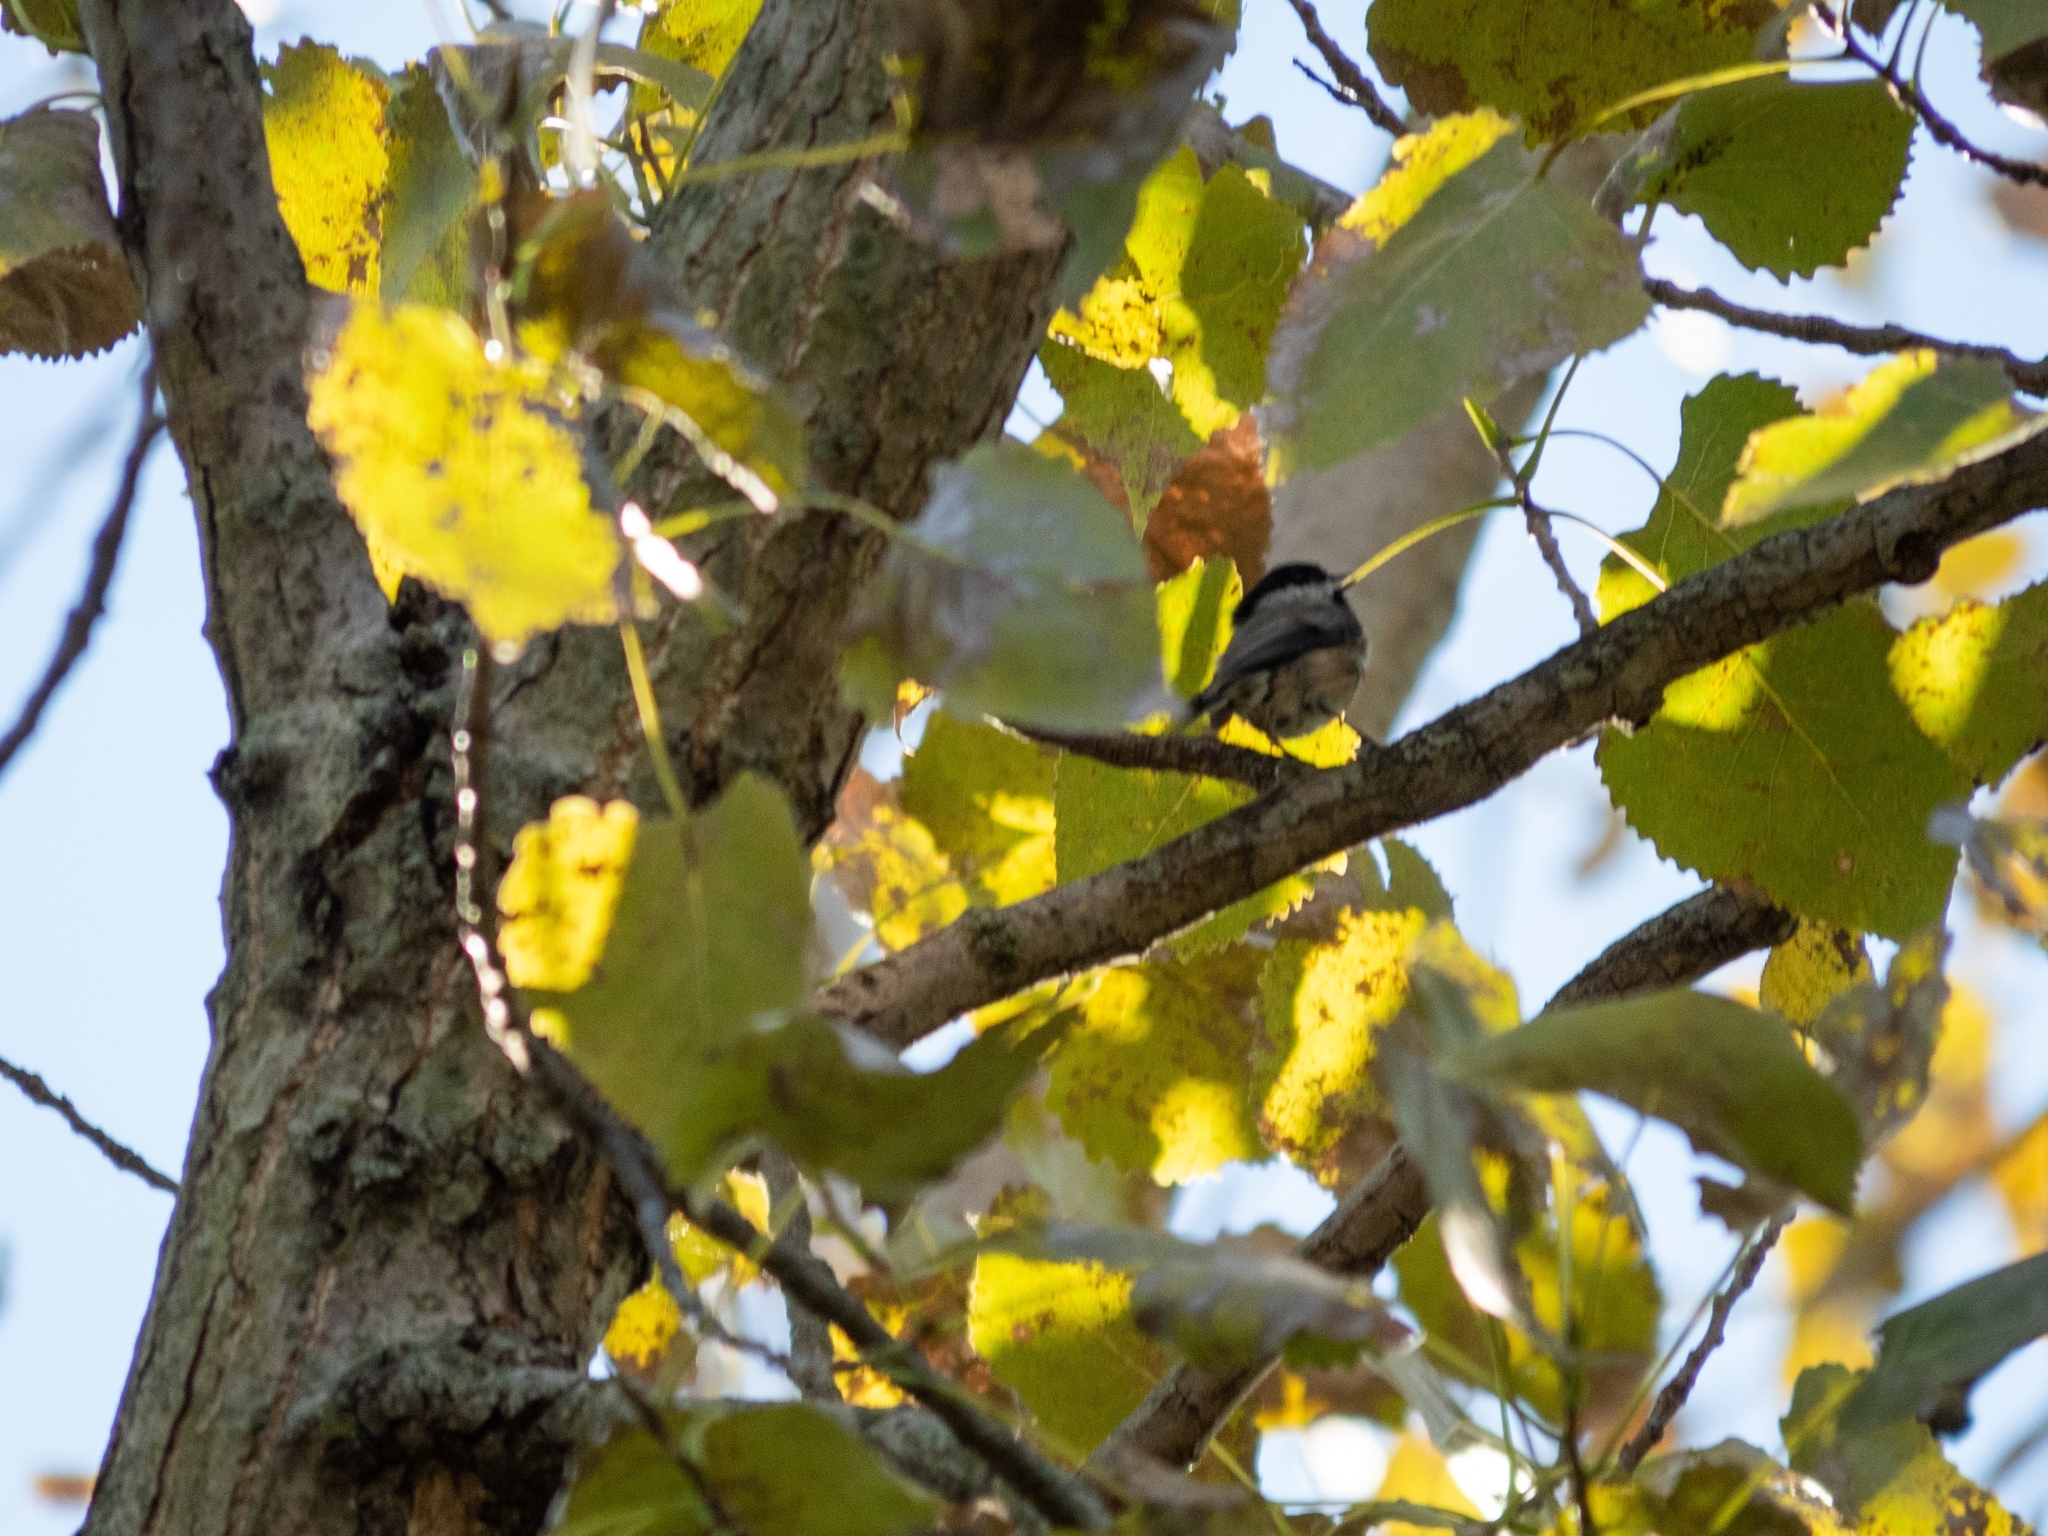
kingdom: Animalia
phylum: Chordata
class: Aves
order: Passeriformes
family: Paridae
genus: Poecile
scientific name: Poecile carolinensis
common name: Carolina chickadee
